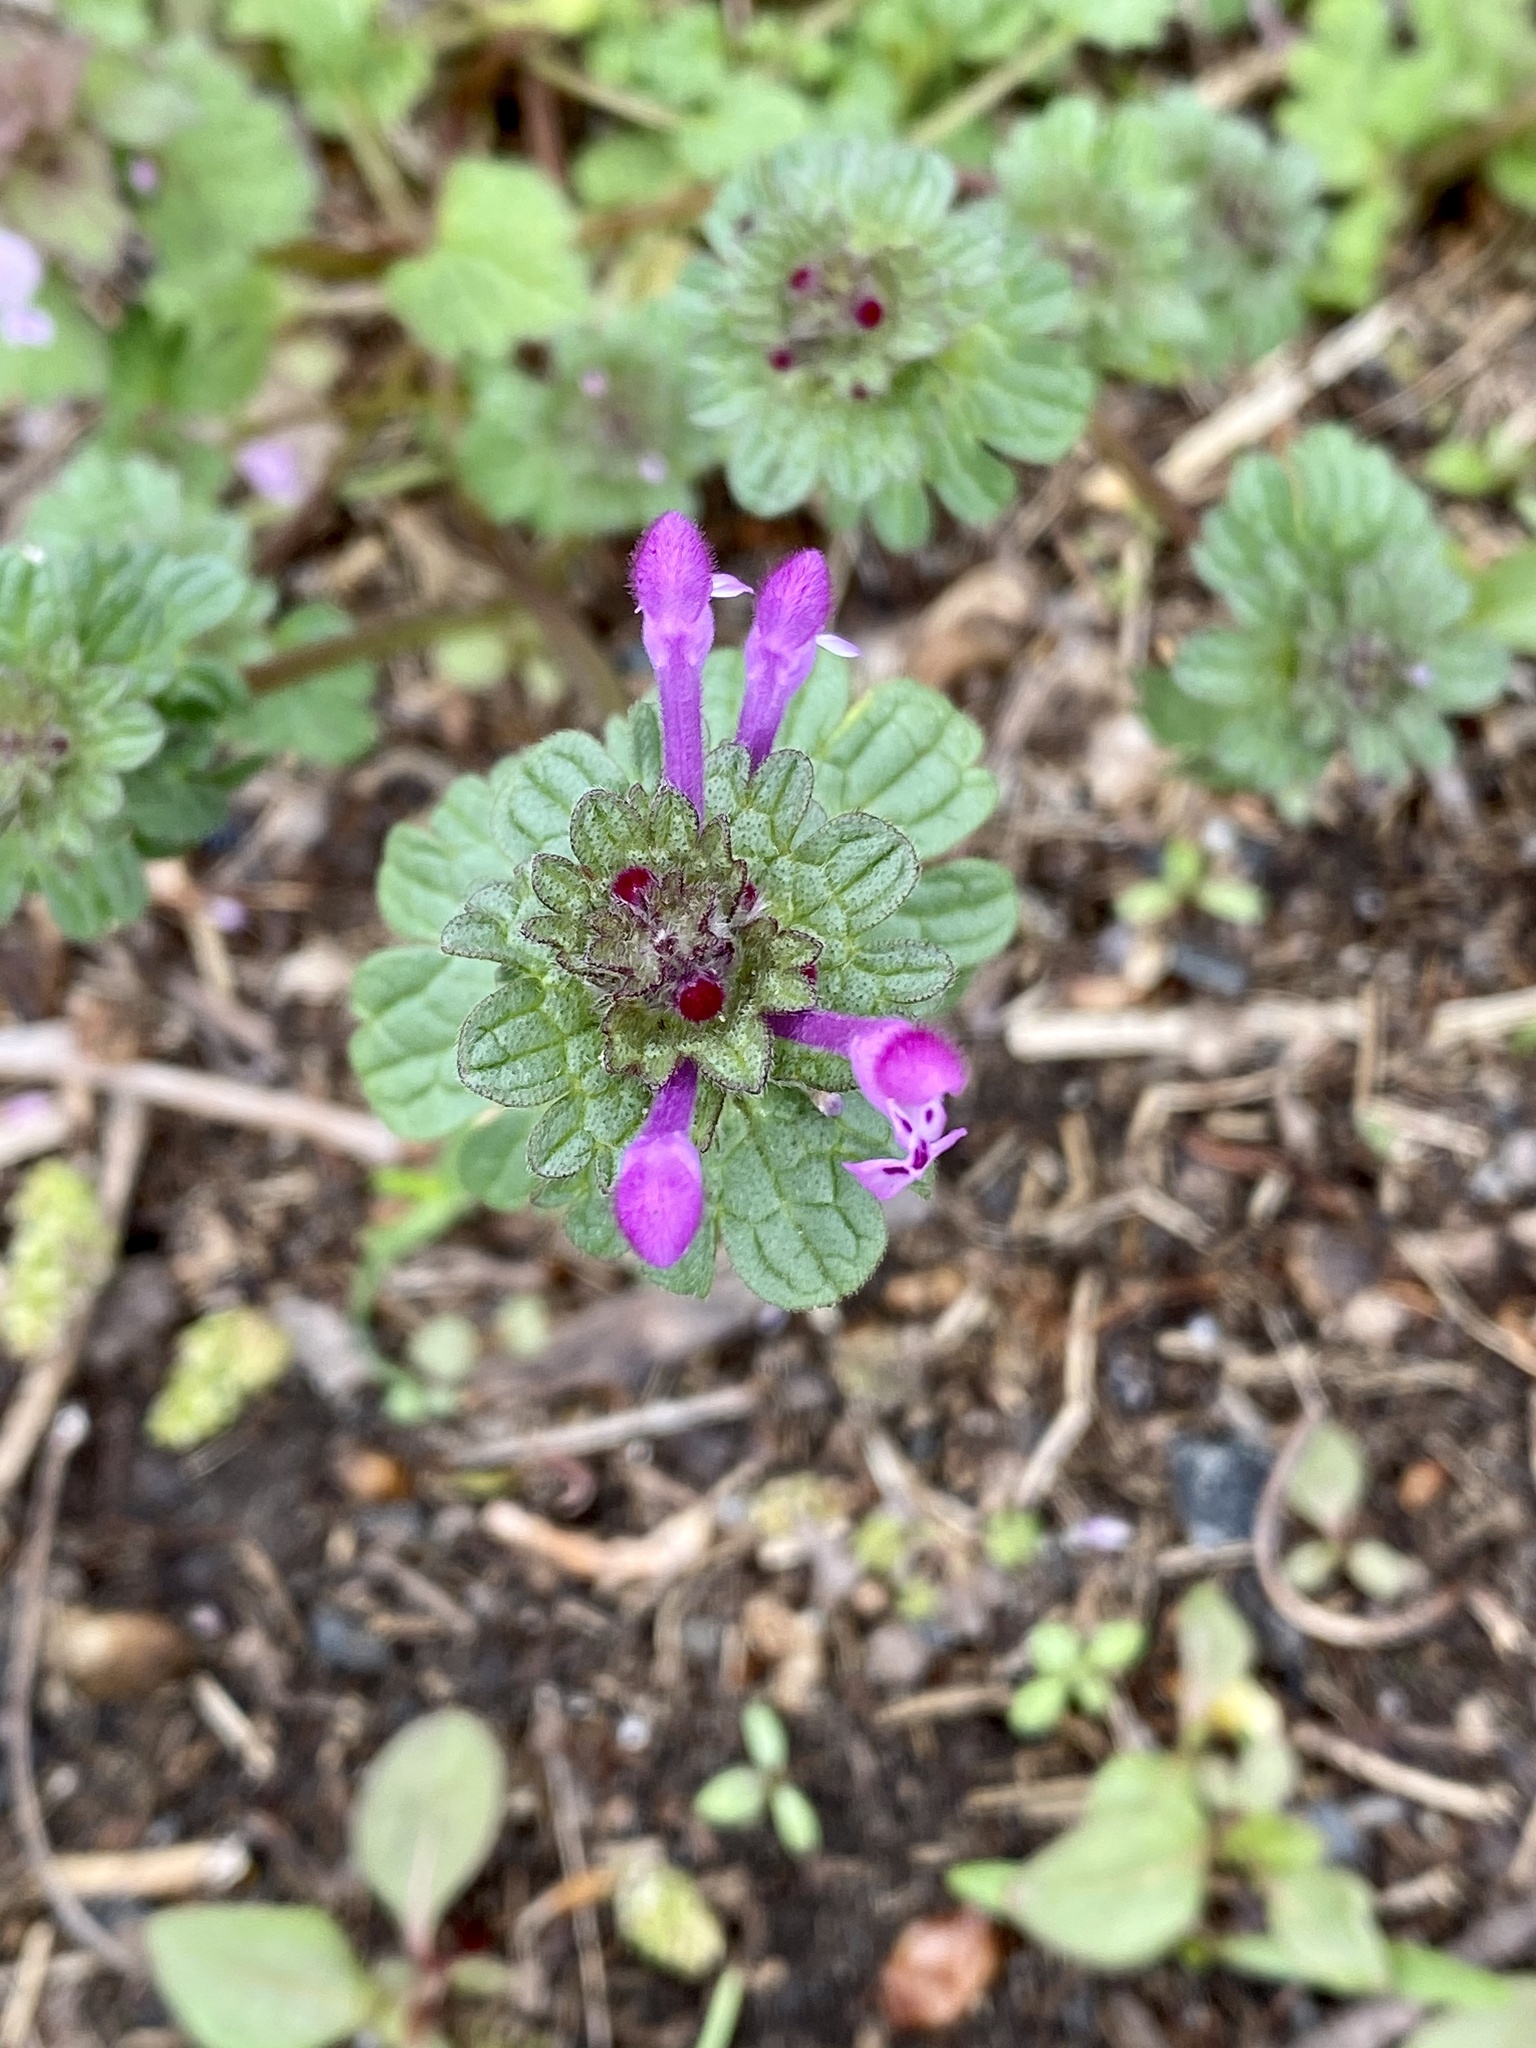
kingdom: Plantae
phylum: Tracheophyta
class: Magnoliopsida
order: Lamiales
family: Lamiaceae
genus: Lamium
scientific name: Lamium amplexicaule
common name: Henbit dead-nettle
